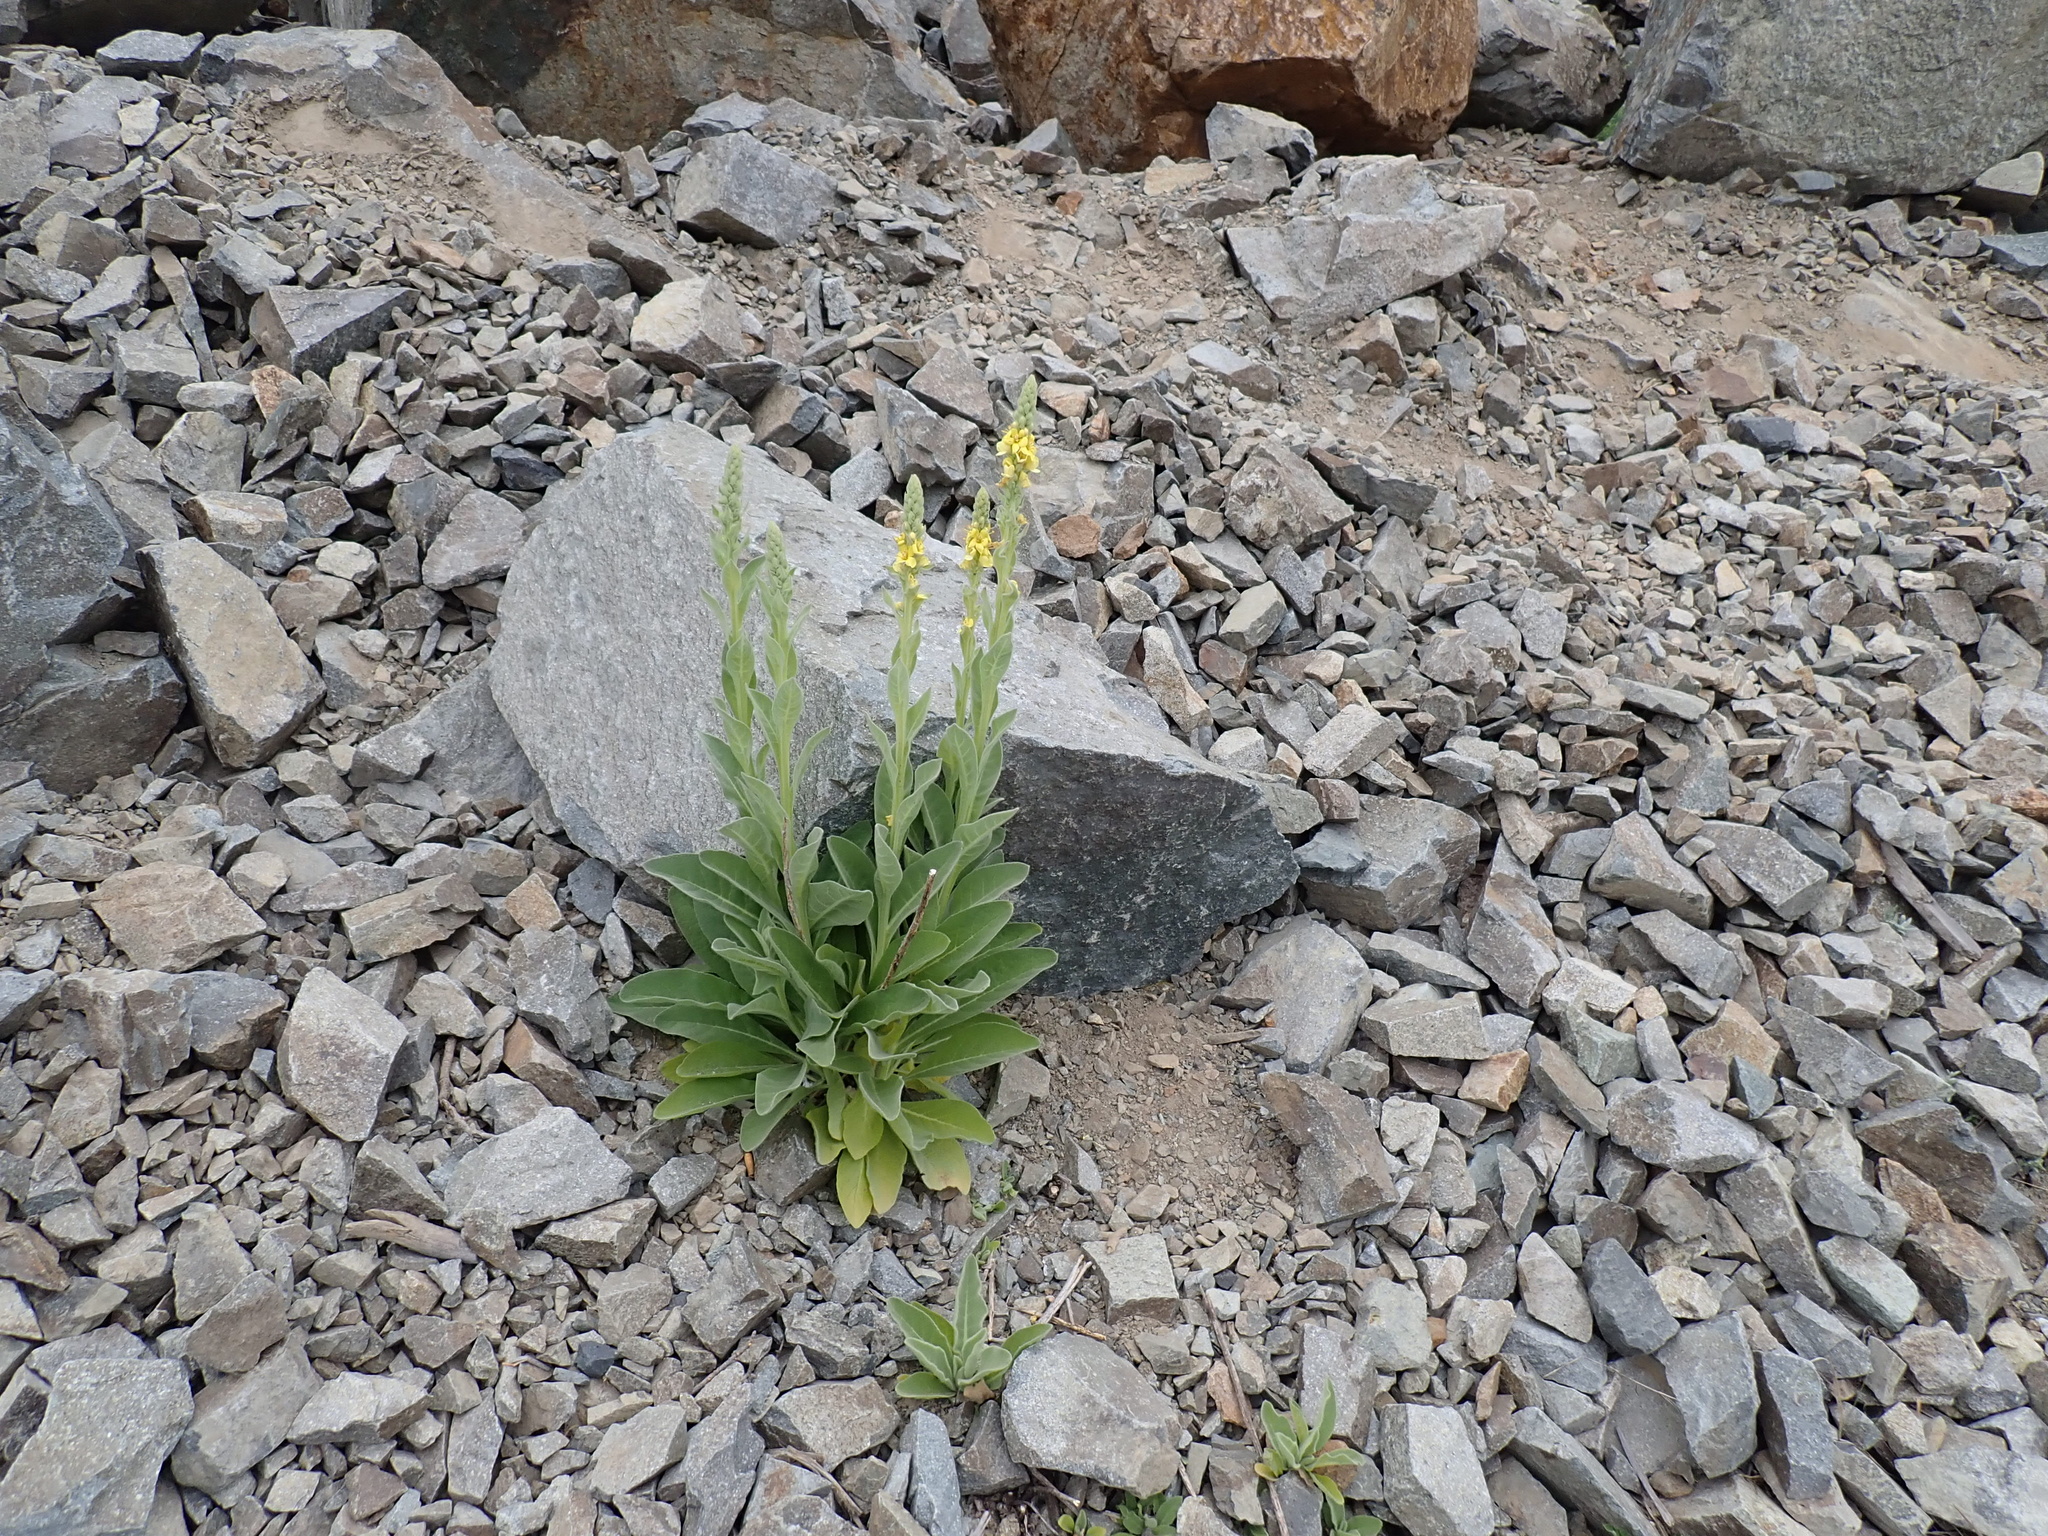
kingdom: Plantae
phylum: Tracheophyta
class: Magnoliopsida
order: Lamiales
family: Scrophulariaceae
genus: Verbascum
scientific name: Verbascum thapsus
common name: Common mullein
